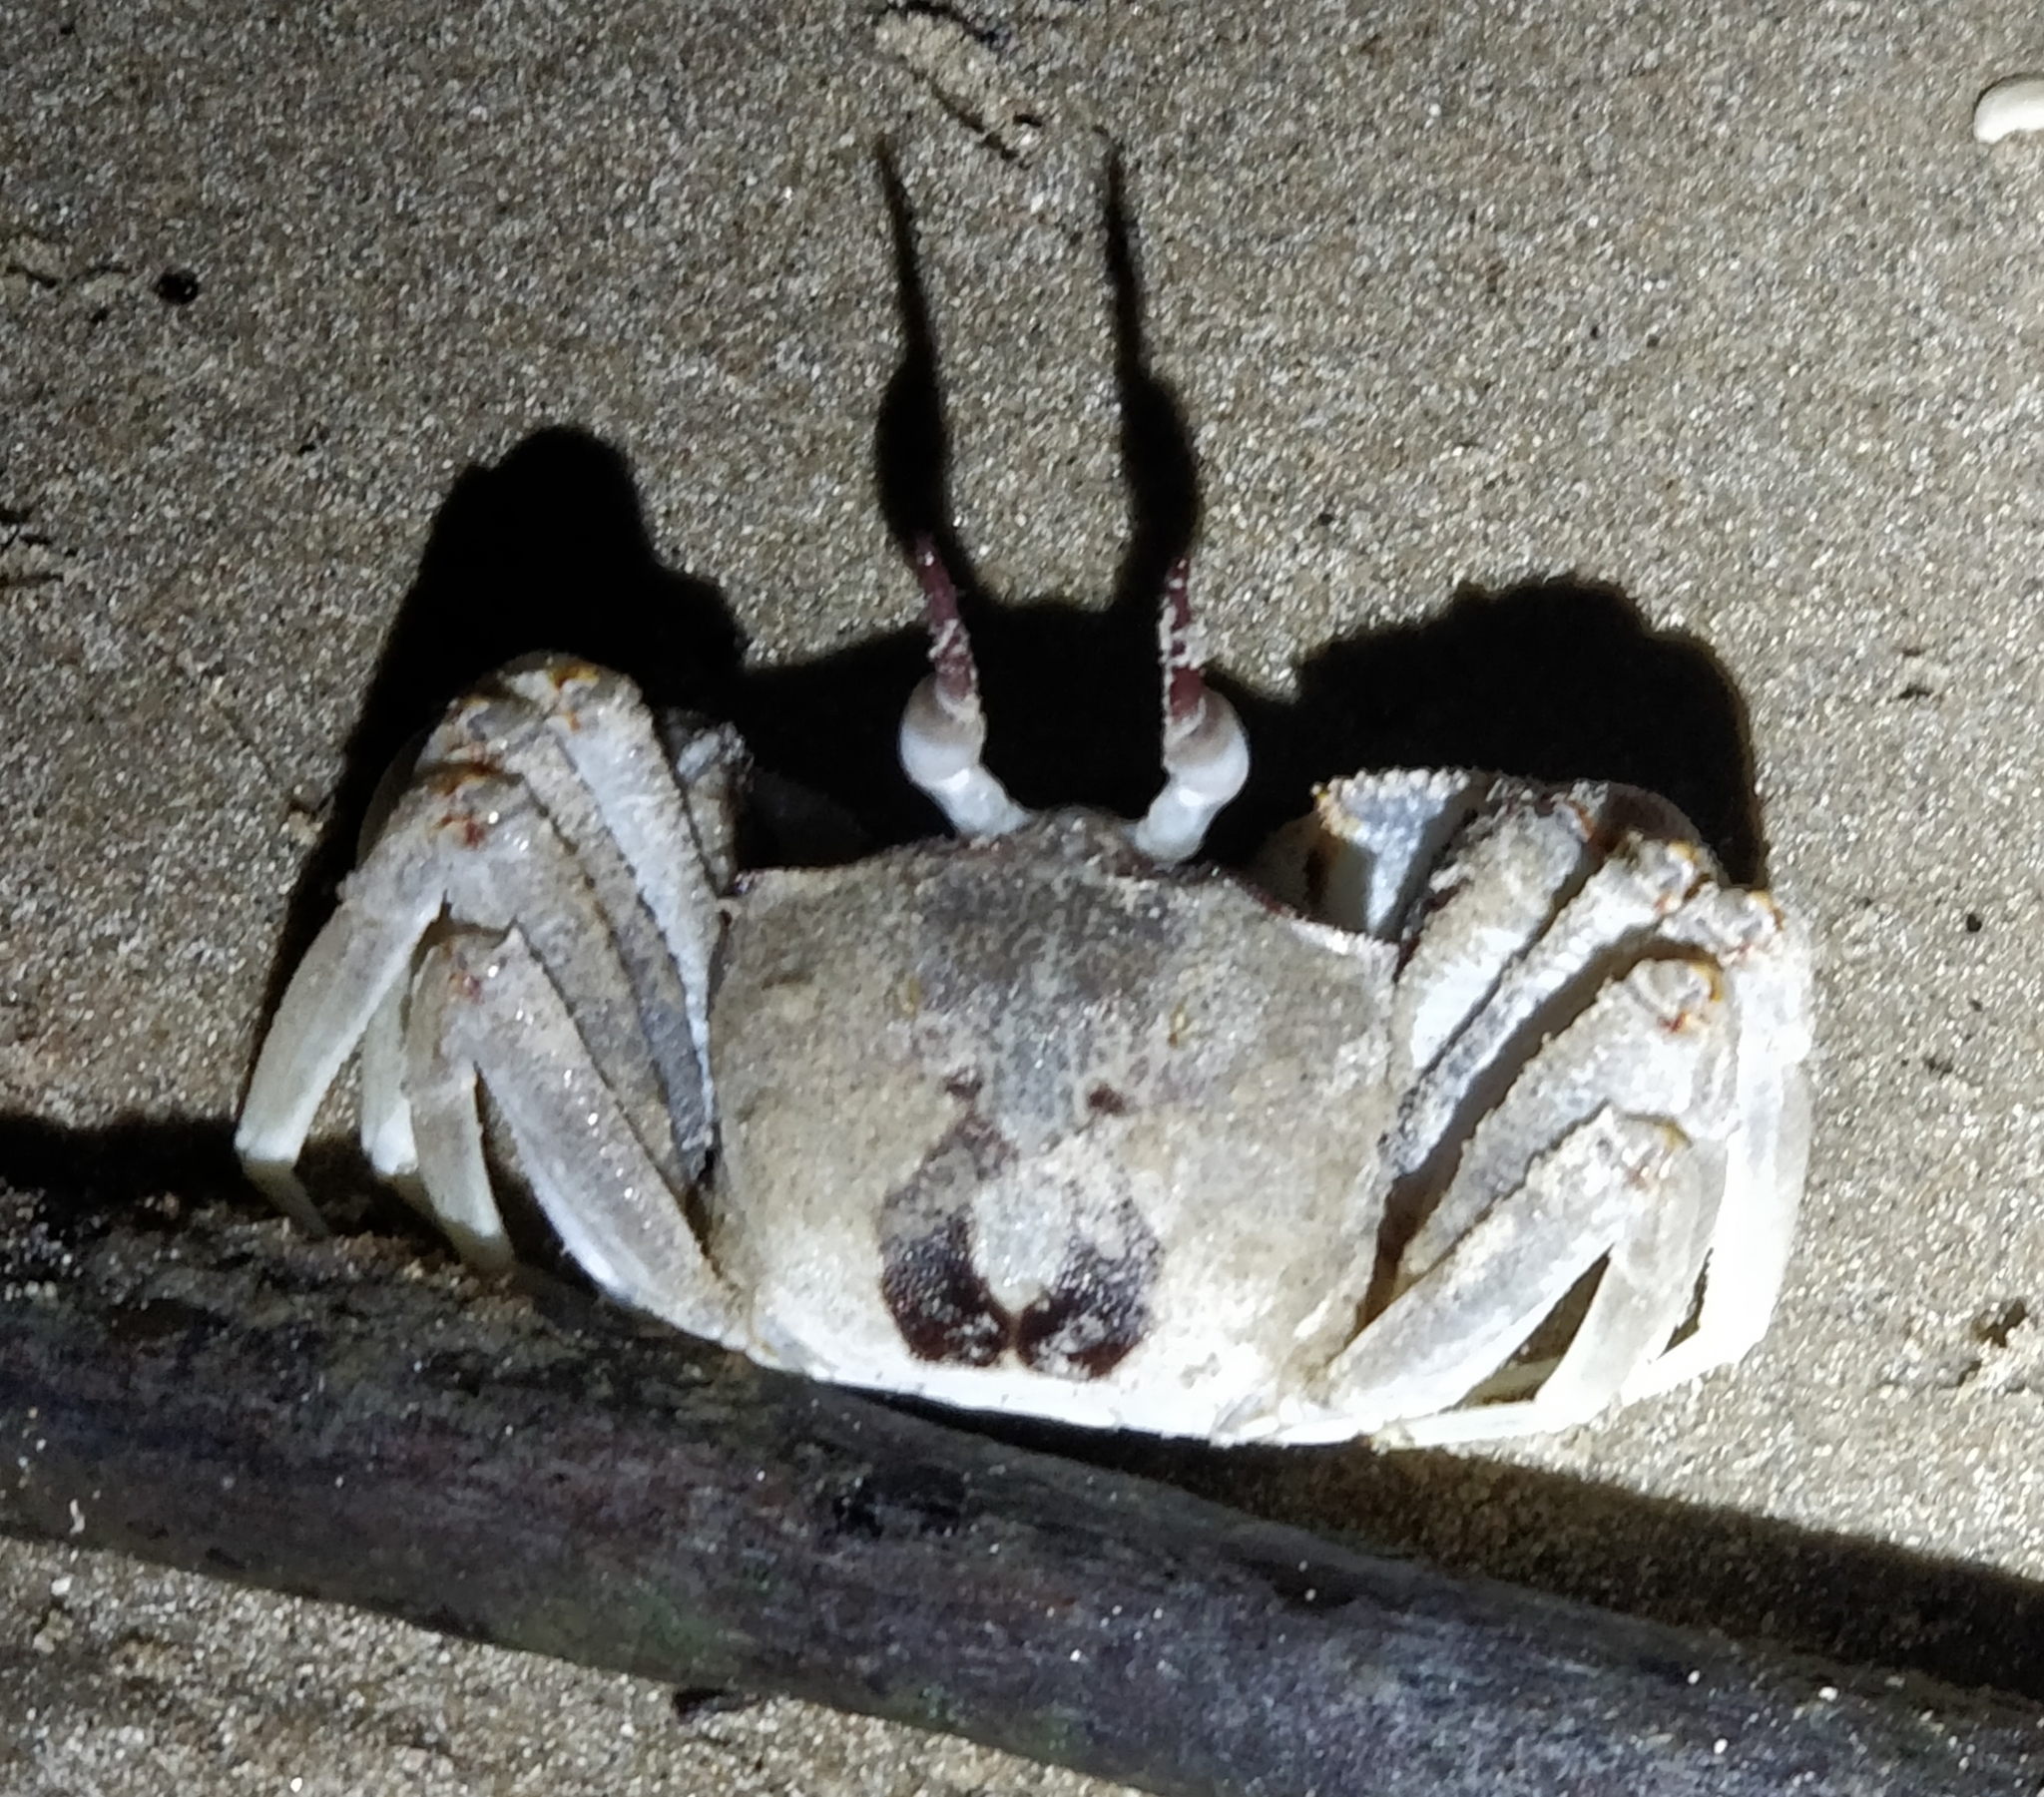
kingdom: Animalia
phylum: Arthropoda
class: Malacostraca
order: Decapoda
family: Ocypodidae
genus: Ocypode
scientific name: Ocypode ceratophthalmus
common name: Indo-pacific ghost crab
